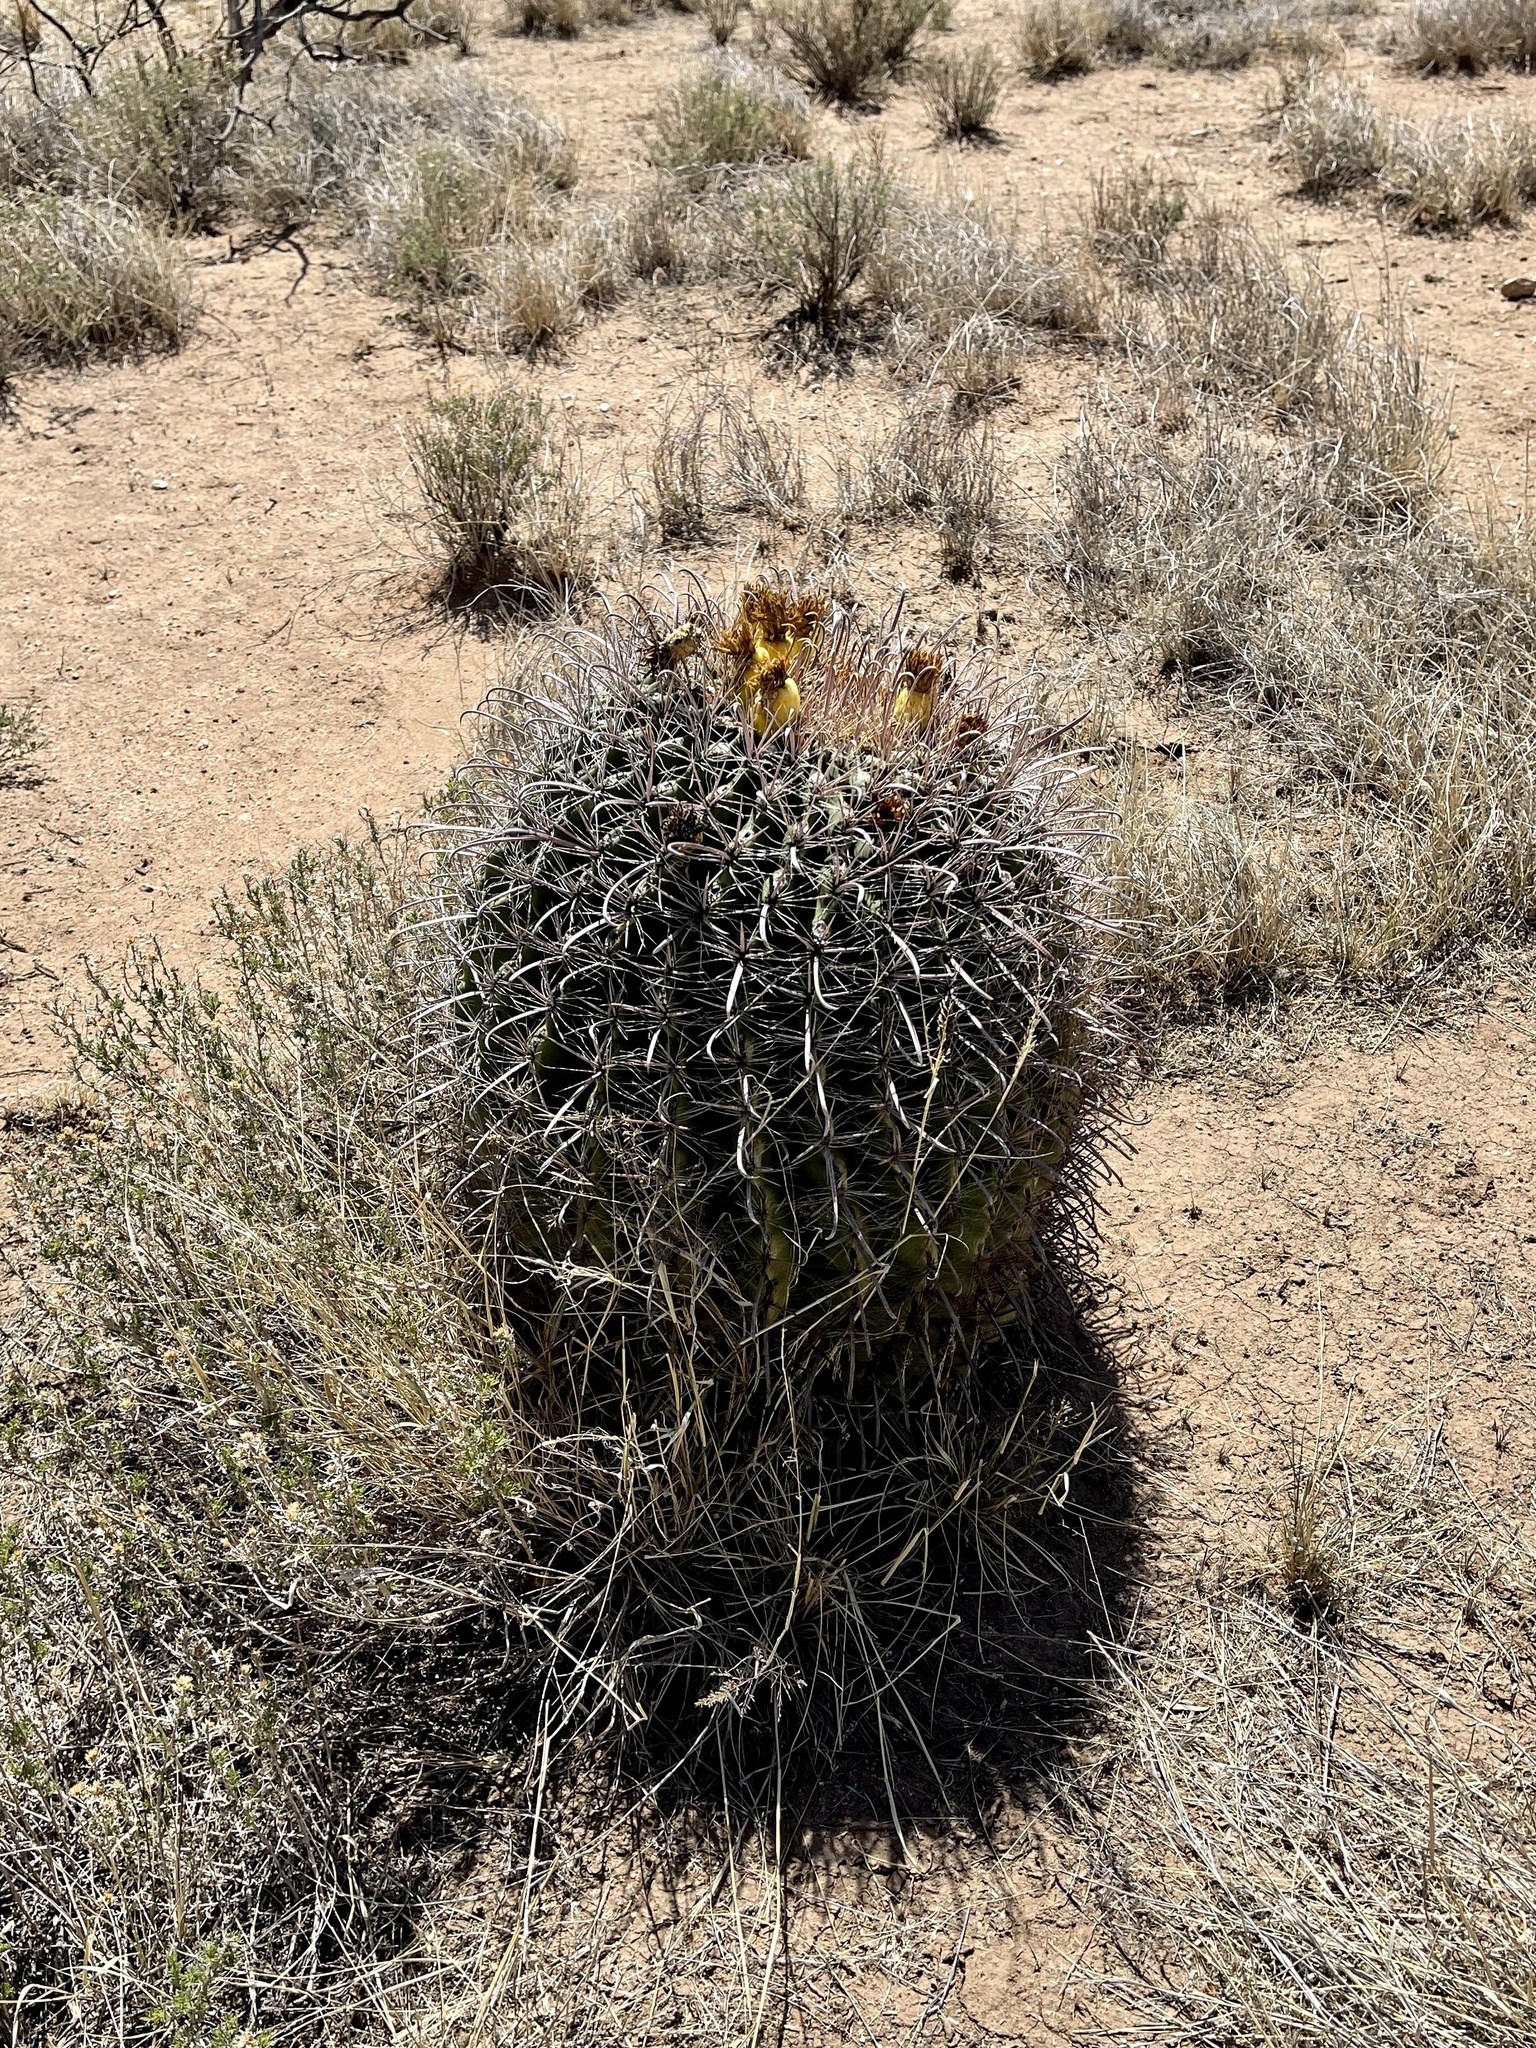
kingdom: Plantae
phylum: Tracheophyta
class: Magnoliopsida
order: Caryophyllales
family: Cactaceae
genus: Ferocactus
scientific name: Ferocactus wislizeni
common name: Candy barrel cactus
